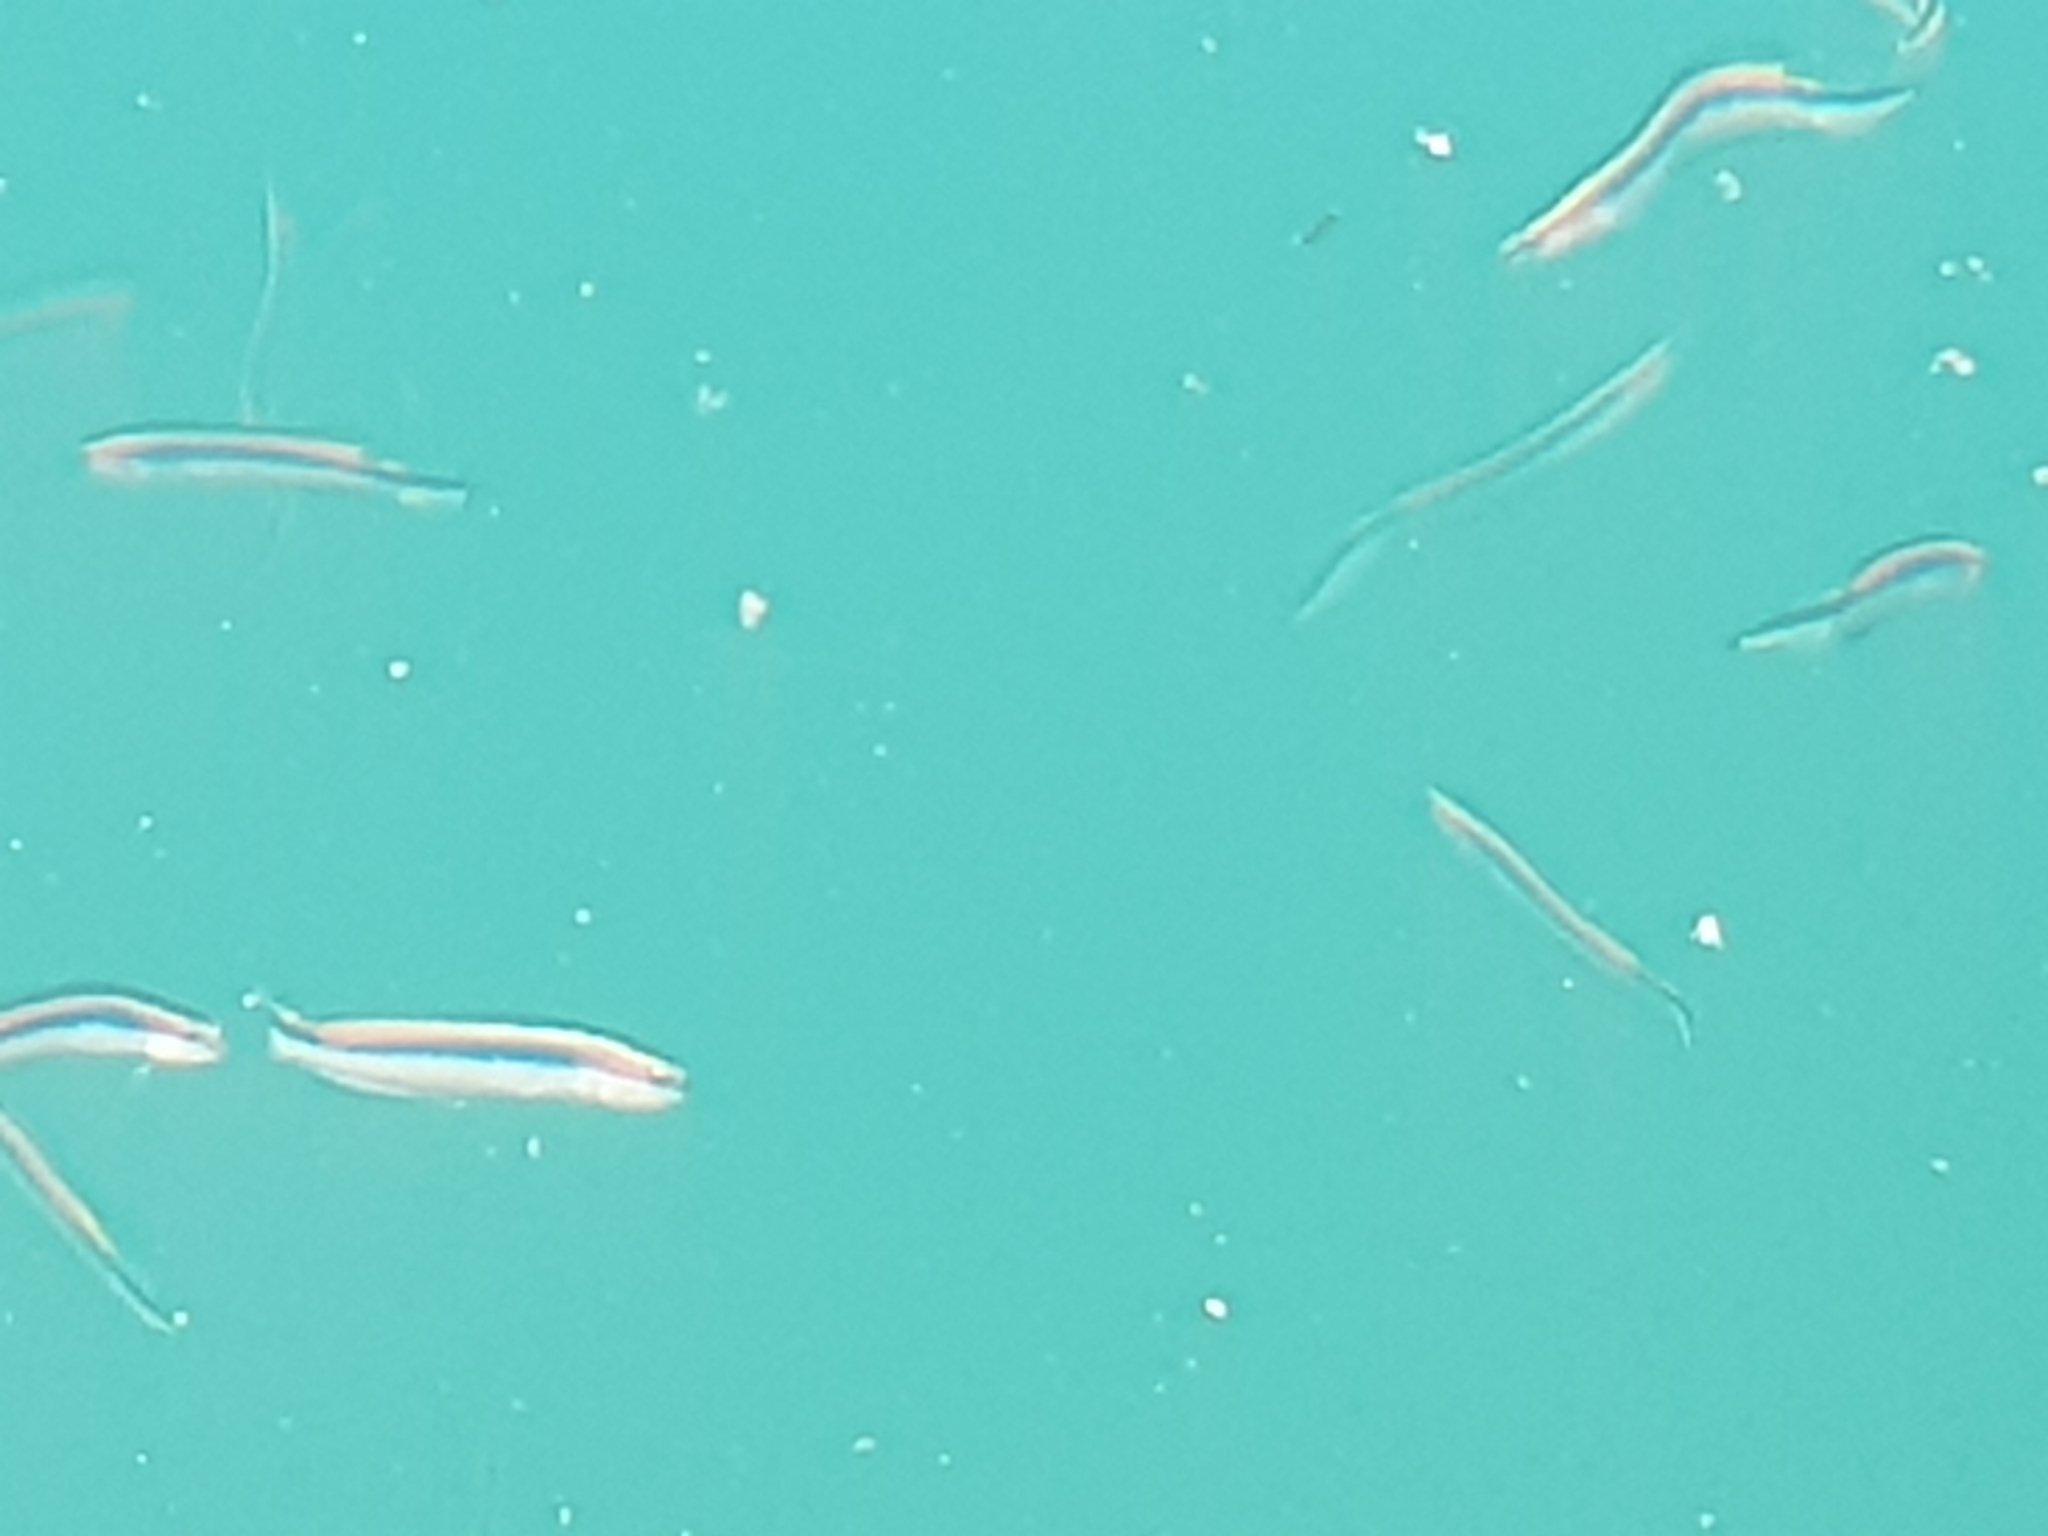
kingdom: Animalia
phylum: Chordata
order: Perciformes
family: Plesiopidae
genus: Trachinops
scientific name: Trachinops taeniatus
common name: Eastern hulafish
